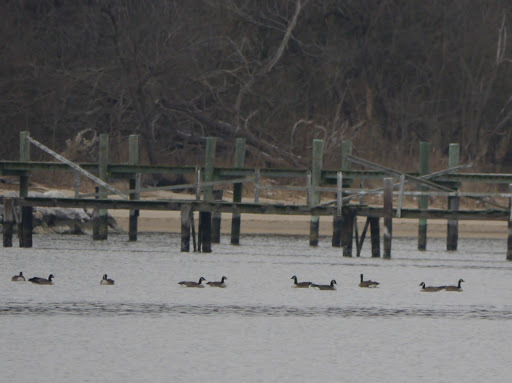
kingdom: Animalia
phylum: Chordata
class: Aves
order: Anseriformes
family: Anatidae
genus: Branta
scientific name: Branta canadensis
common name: Canada goose
